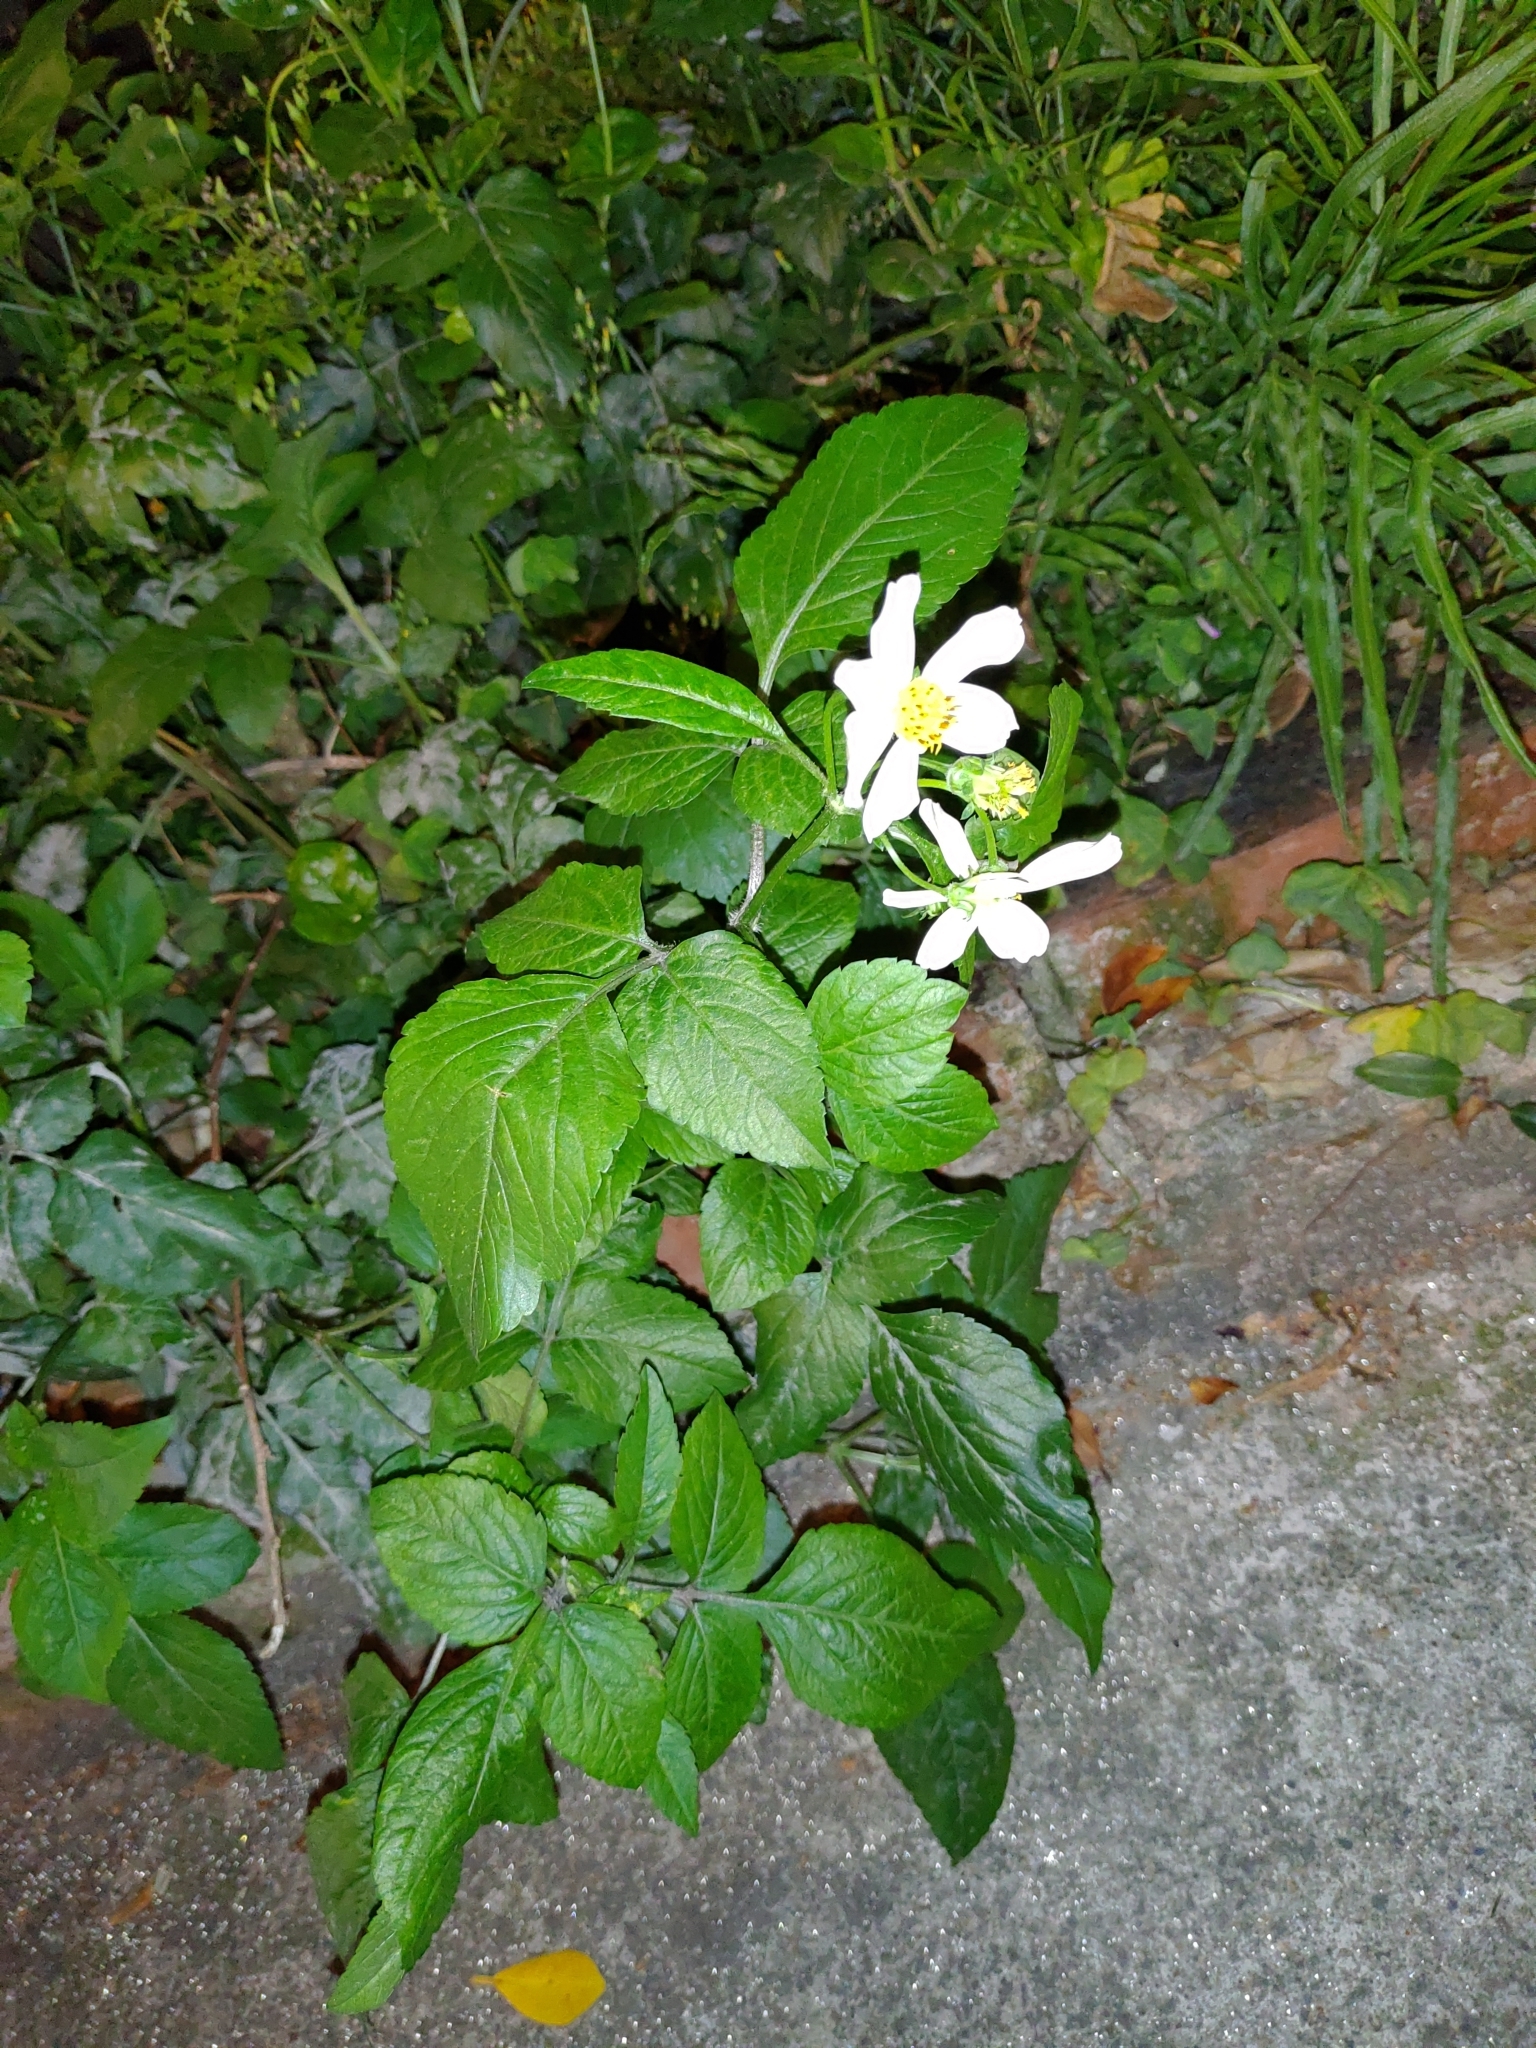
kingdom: Plantae
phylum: Tracheophyta
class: Magnoliopsida
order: Asterales
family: Asteraceae
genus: Bidens
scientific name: Bidens alba
